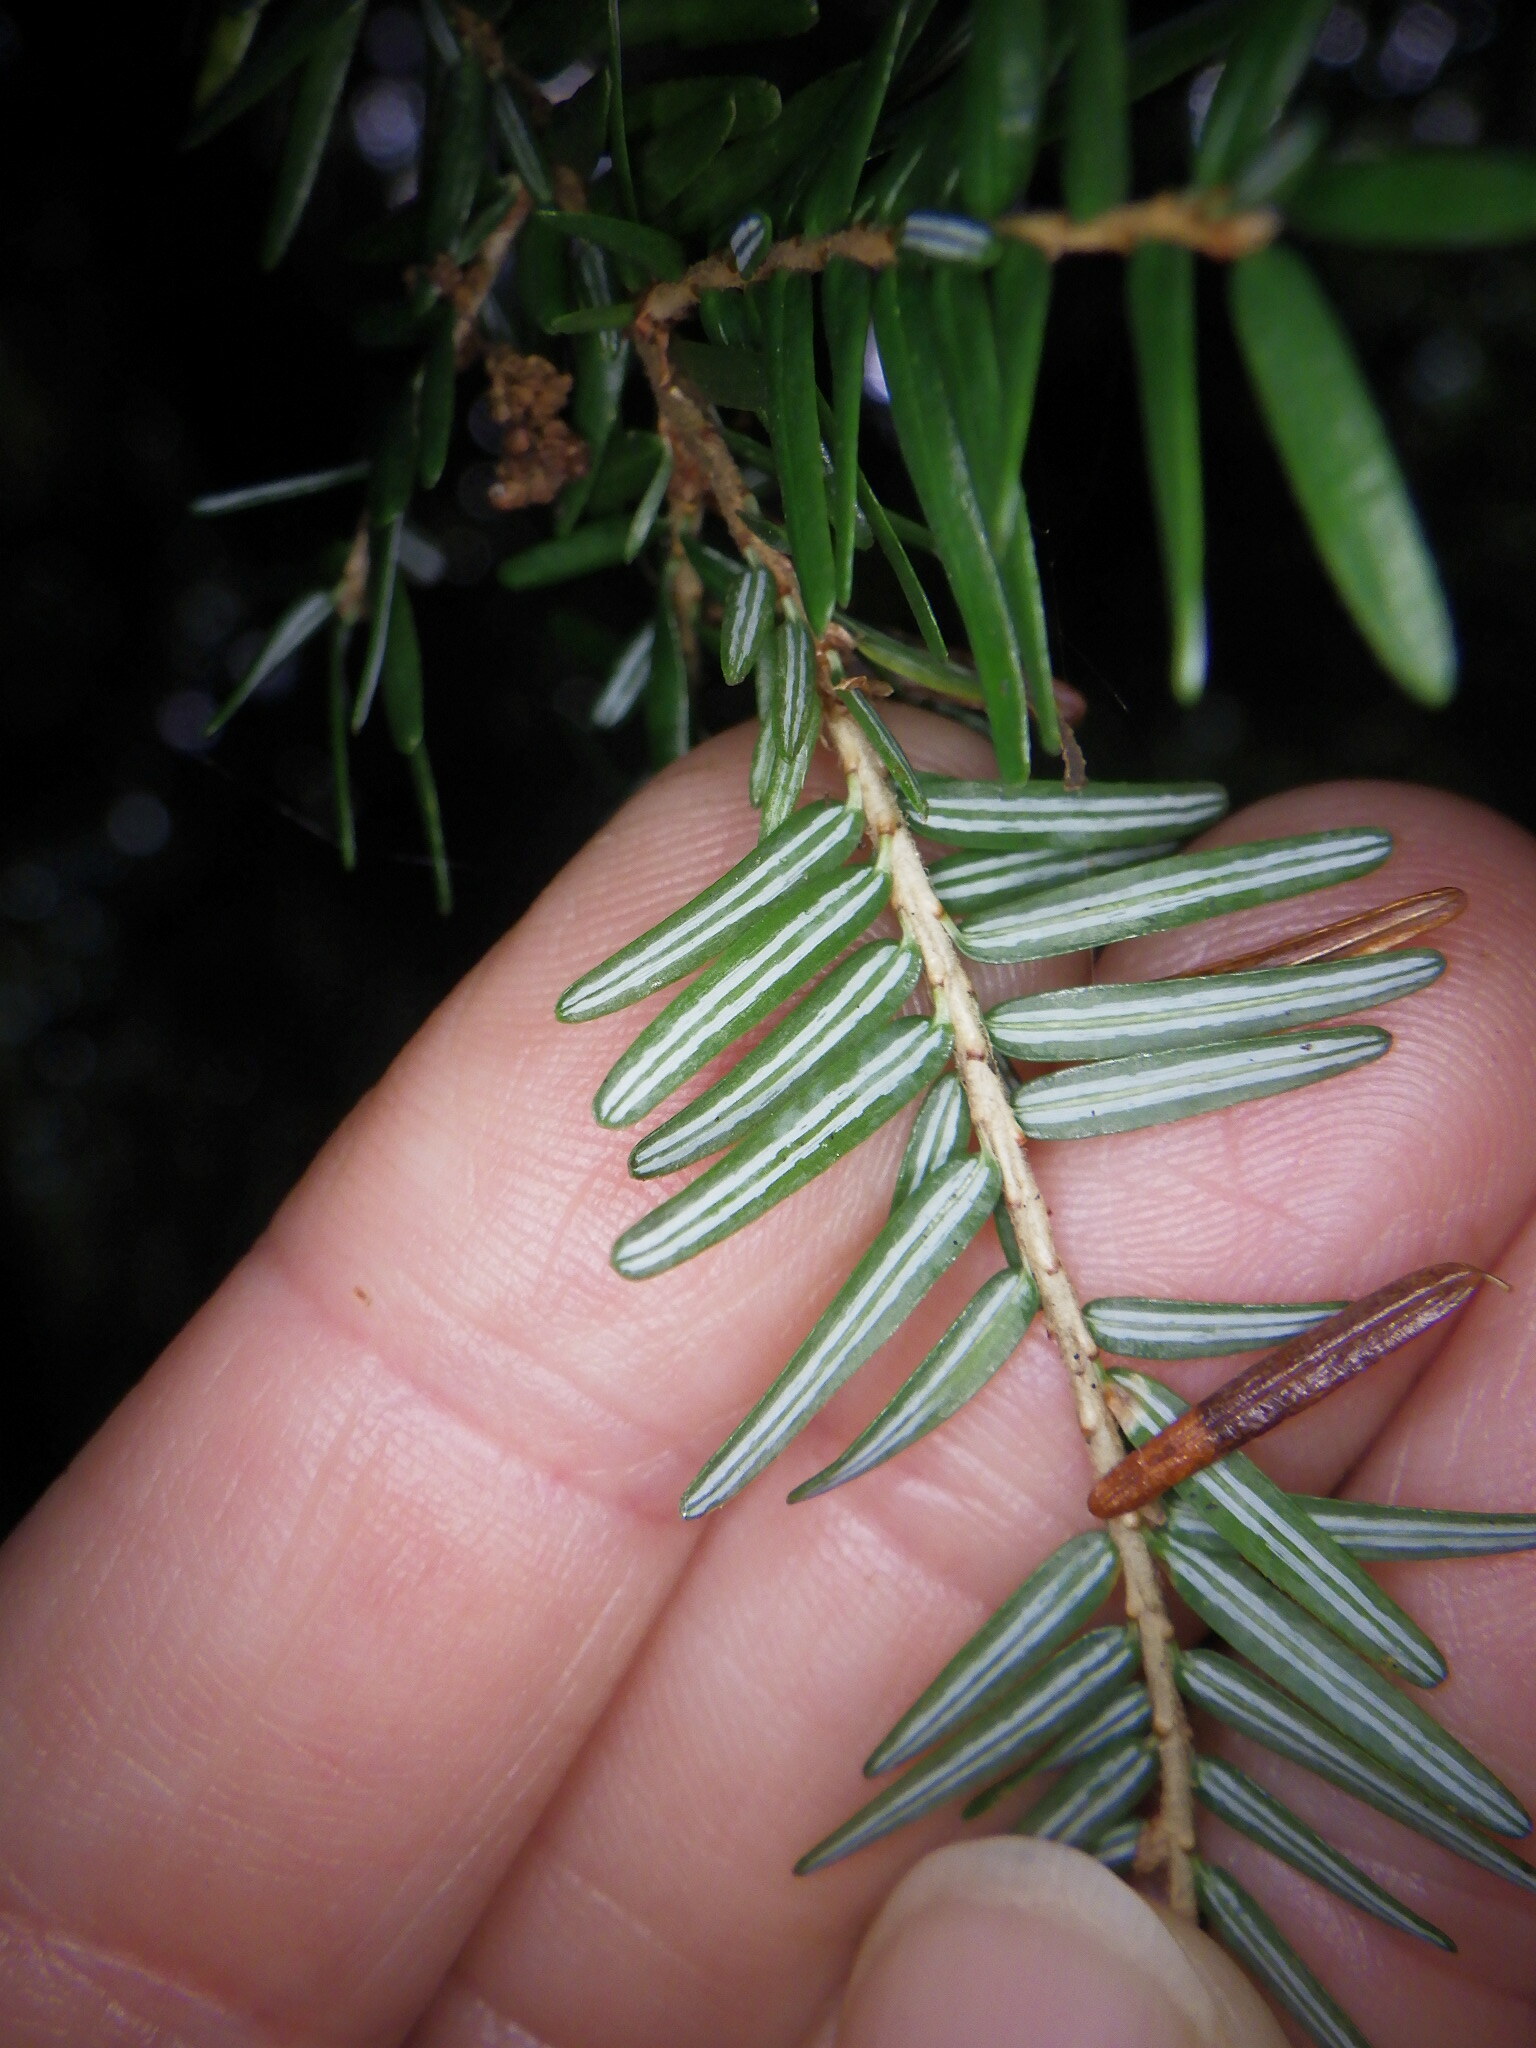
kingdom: Plantae
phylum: Tracheophyta
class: Pinopsida
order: Pinales
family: Pinaceae
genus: Tsuga
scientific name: Tsuga canadensis
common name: Eastern hemlock
